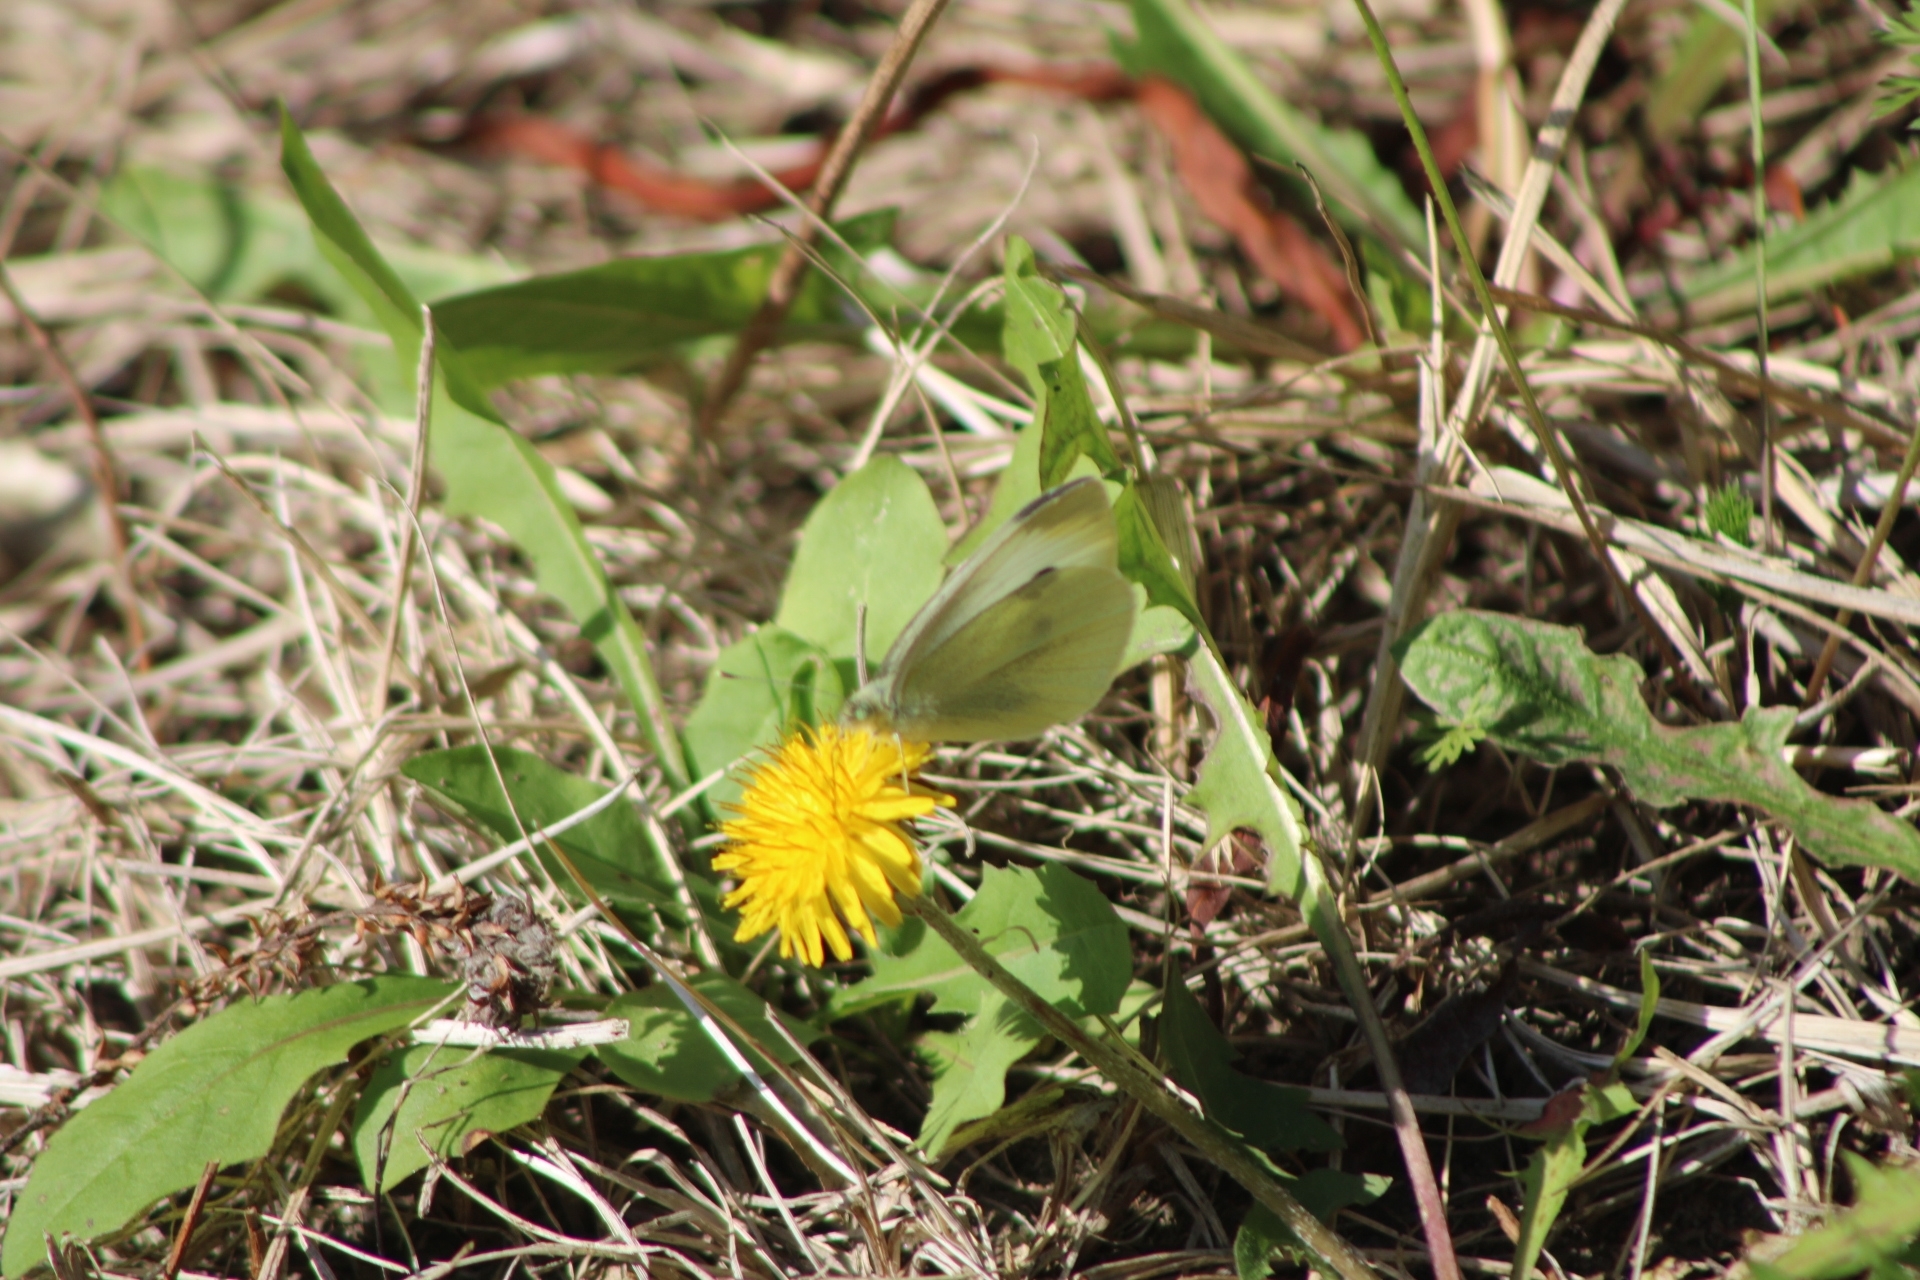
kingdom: Animalia
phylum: Arthropoda
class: Insecta
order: Lepidoptera
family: Pieridae
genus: Pieris
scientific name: Pieris rapae
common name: Small white
